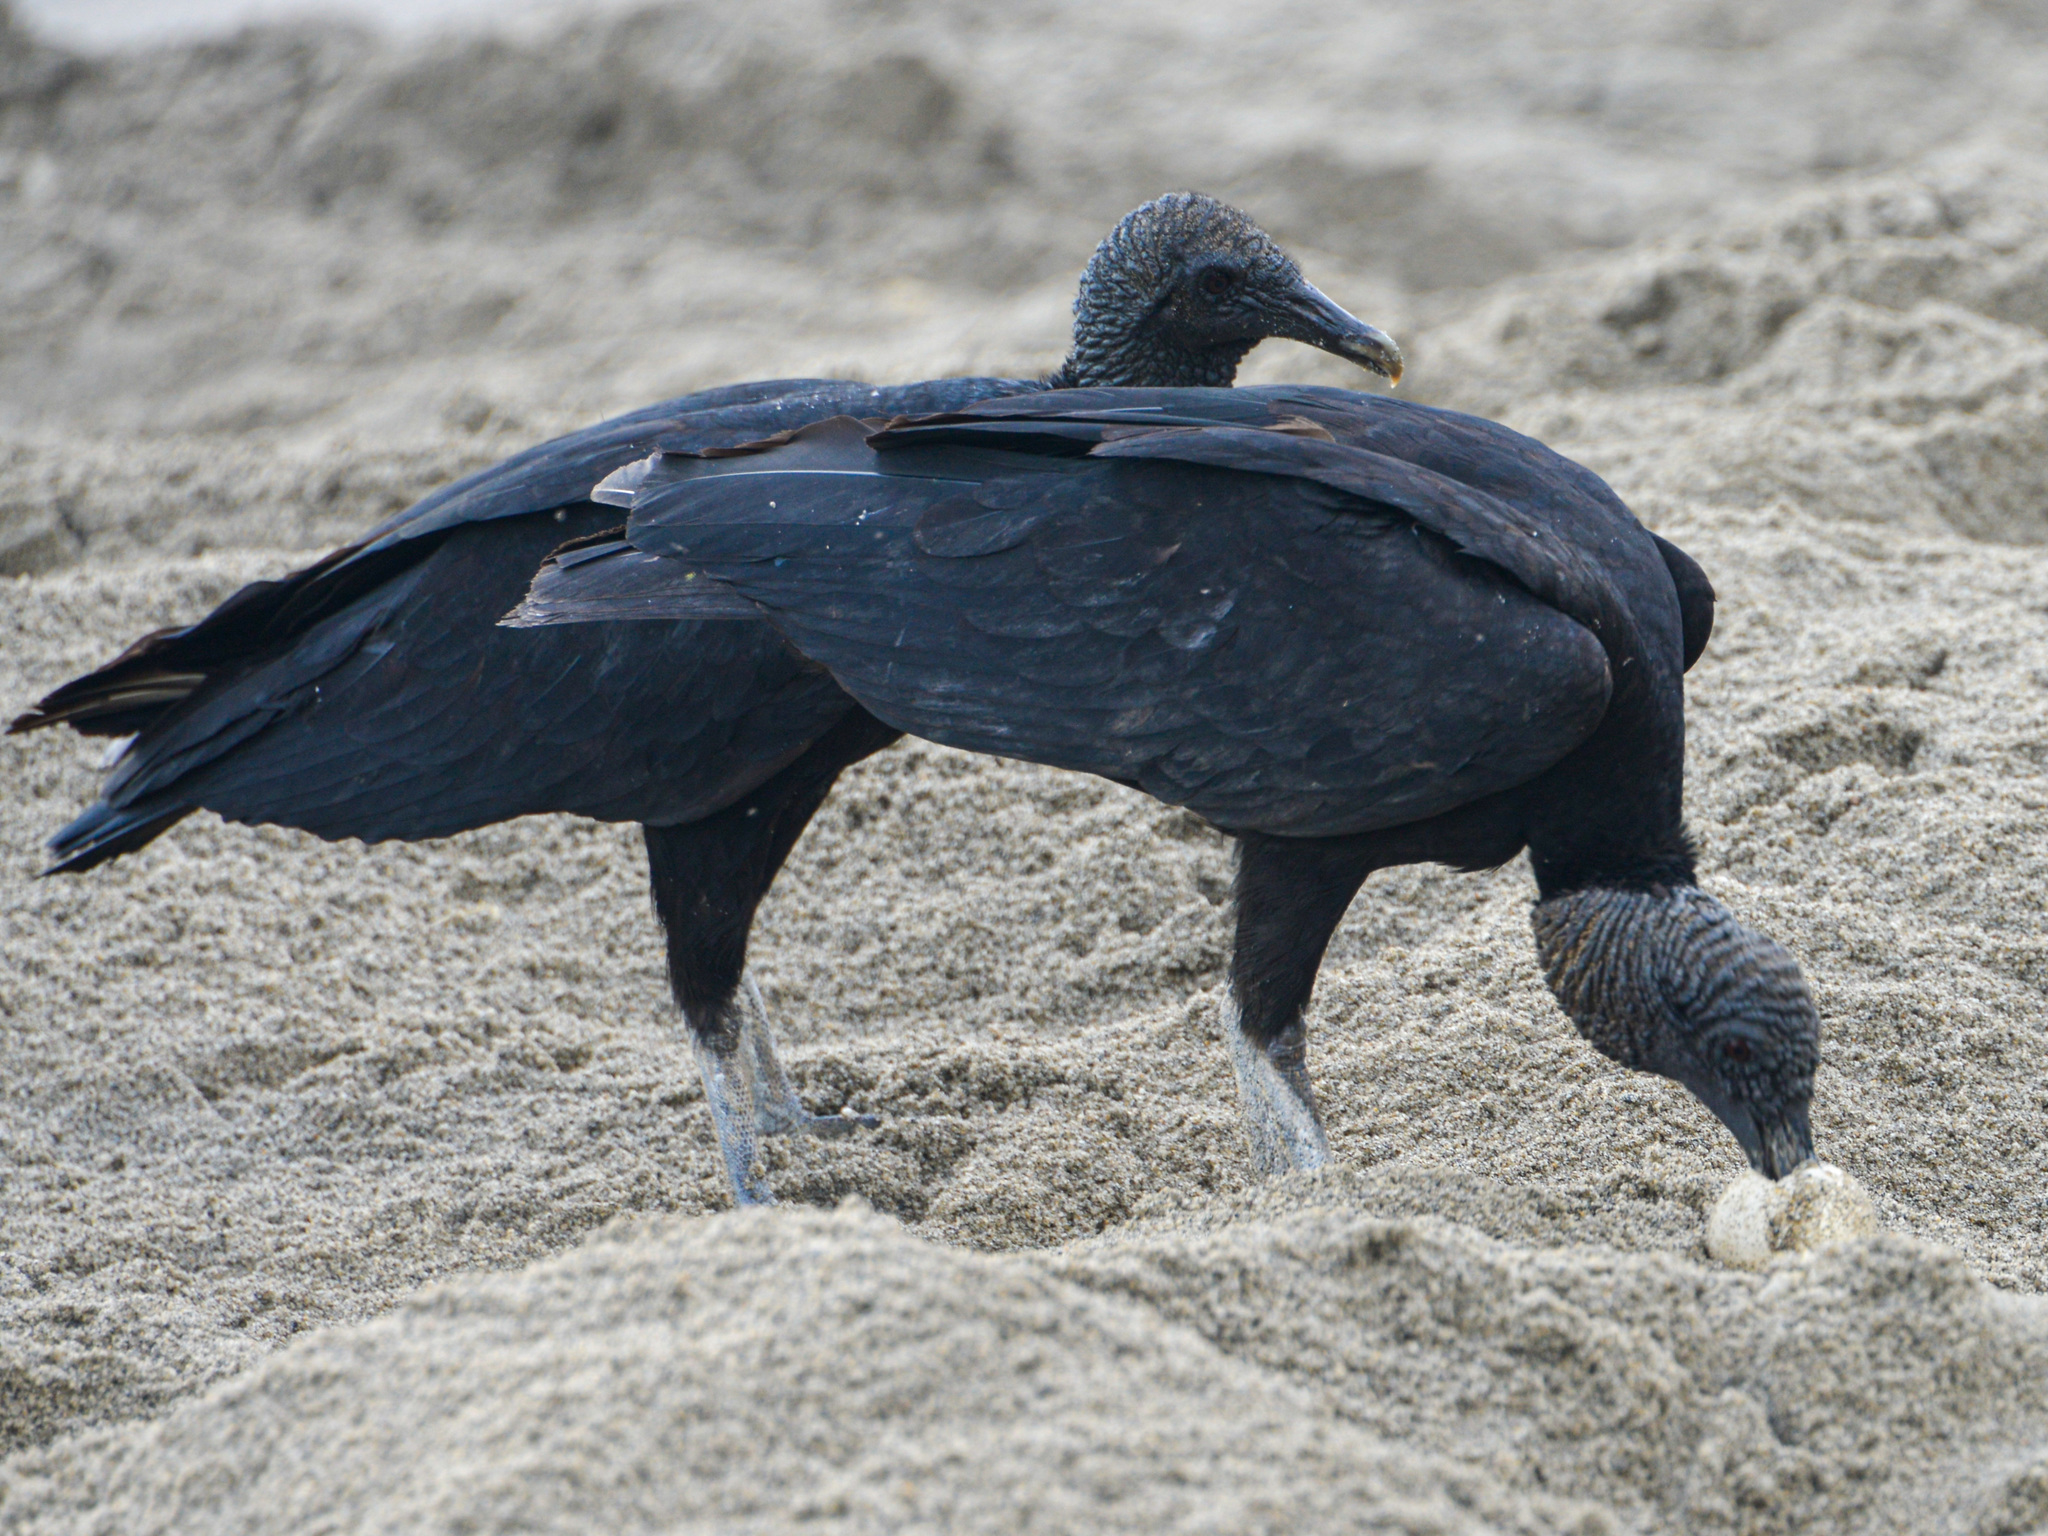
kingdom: Animalia
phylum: Chordata
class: Aves
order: Accipitriformes
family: Cathartidae
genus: Coragyps
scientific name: Coragyps atratus
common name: Black vulture
